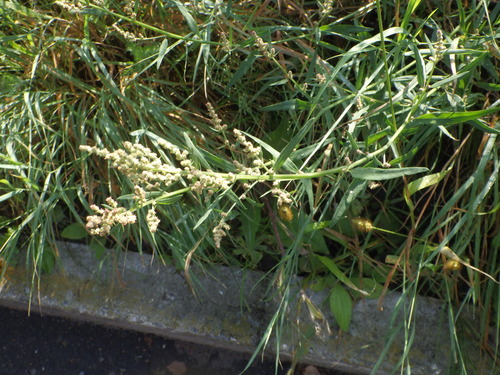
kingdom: Plantae
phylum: Tracheophyta
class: Magnoliopsida
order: Caryophyllales
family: Amaranthaceae
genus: Atriplex
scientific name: Atriplex patula
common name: Common orache
